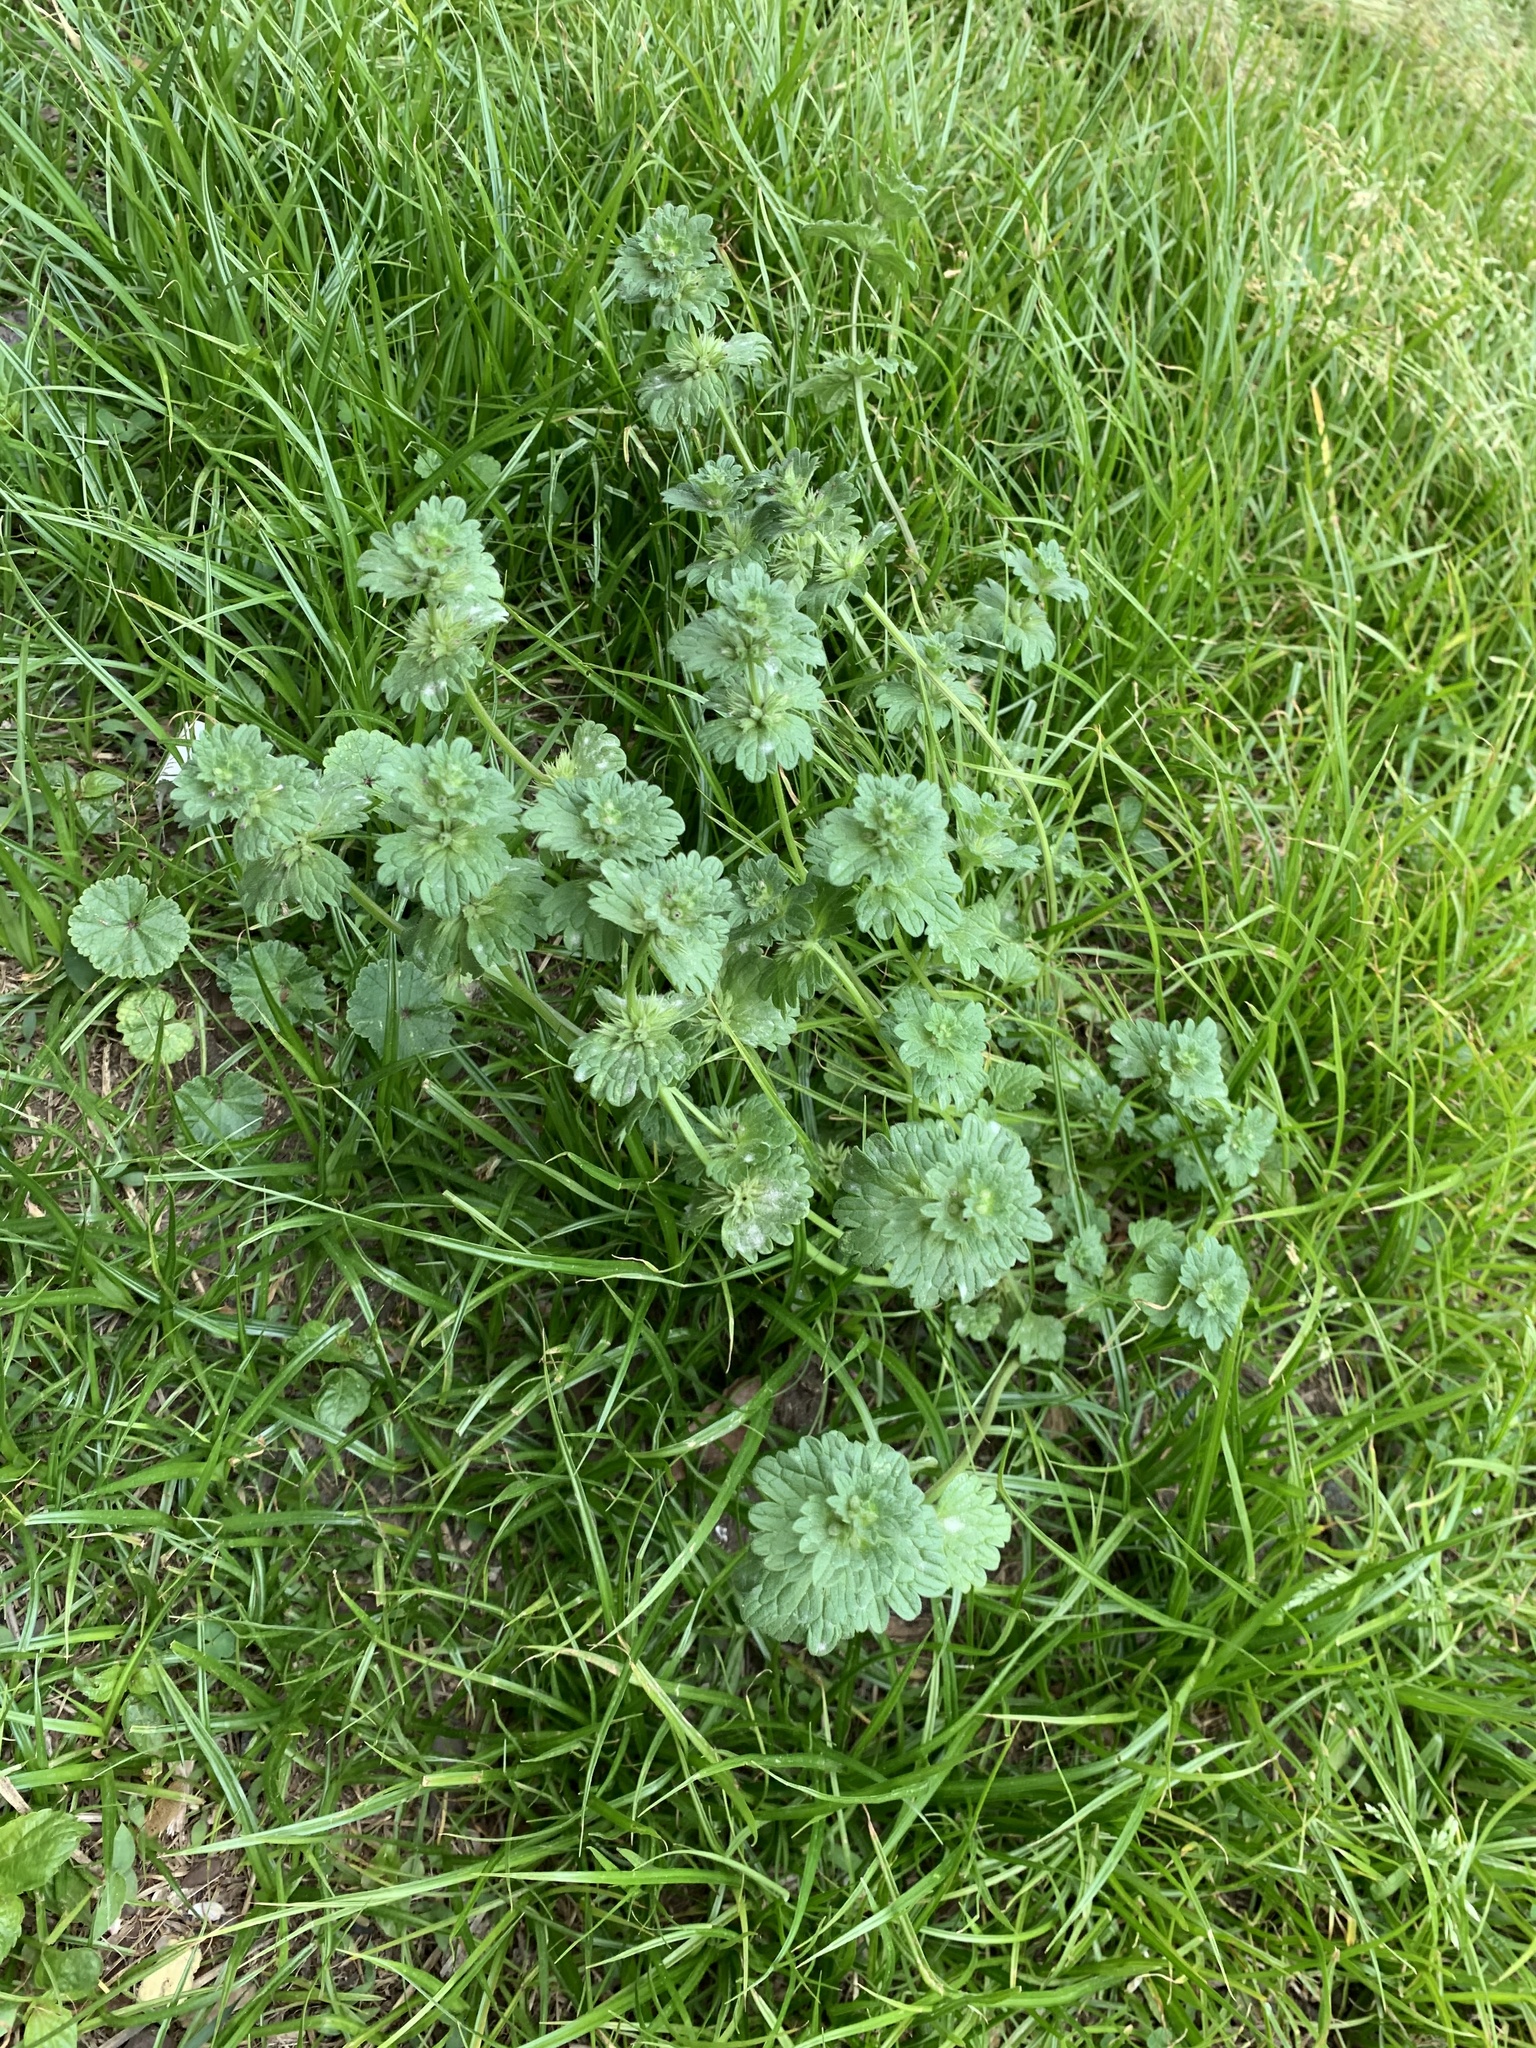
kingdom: Plantae
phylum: Tracheophyta
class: Magnoliopsida
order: Lamiales
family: Lamiaceae
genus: Lamium
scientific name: Lamium amplexicaule
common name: Henbit dead-nettle
